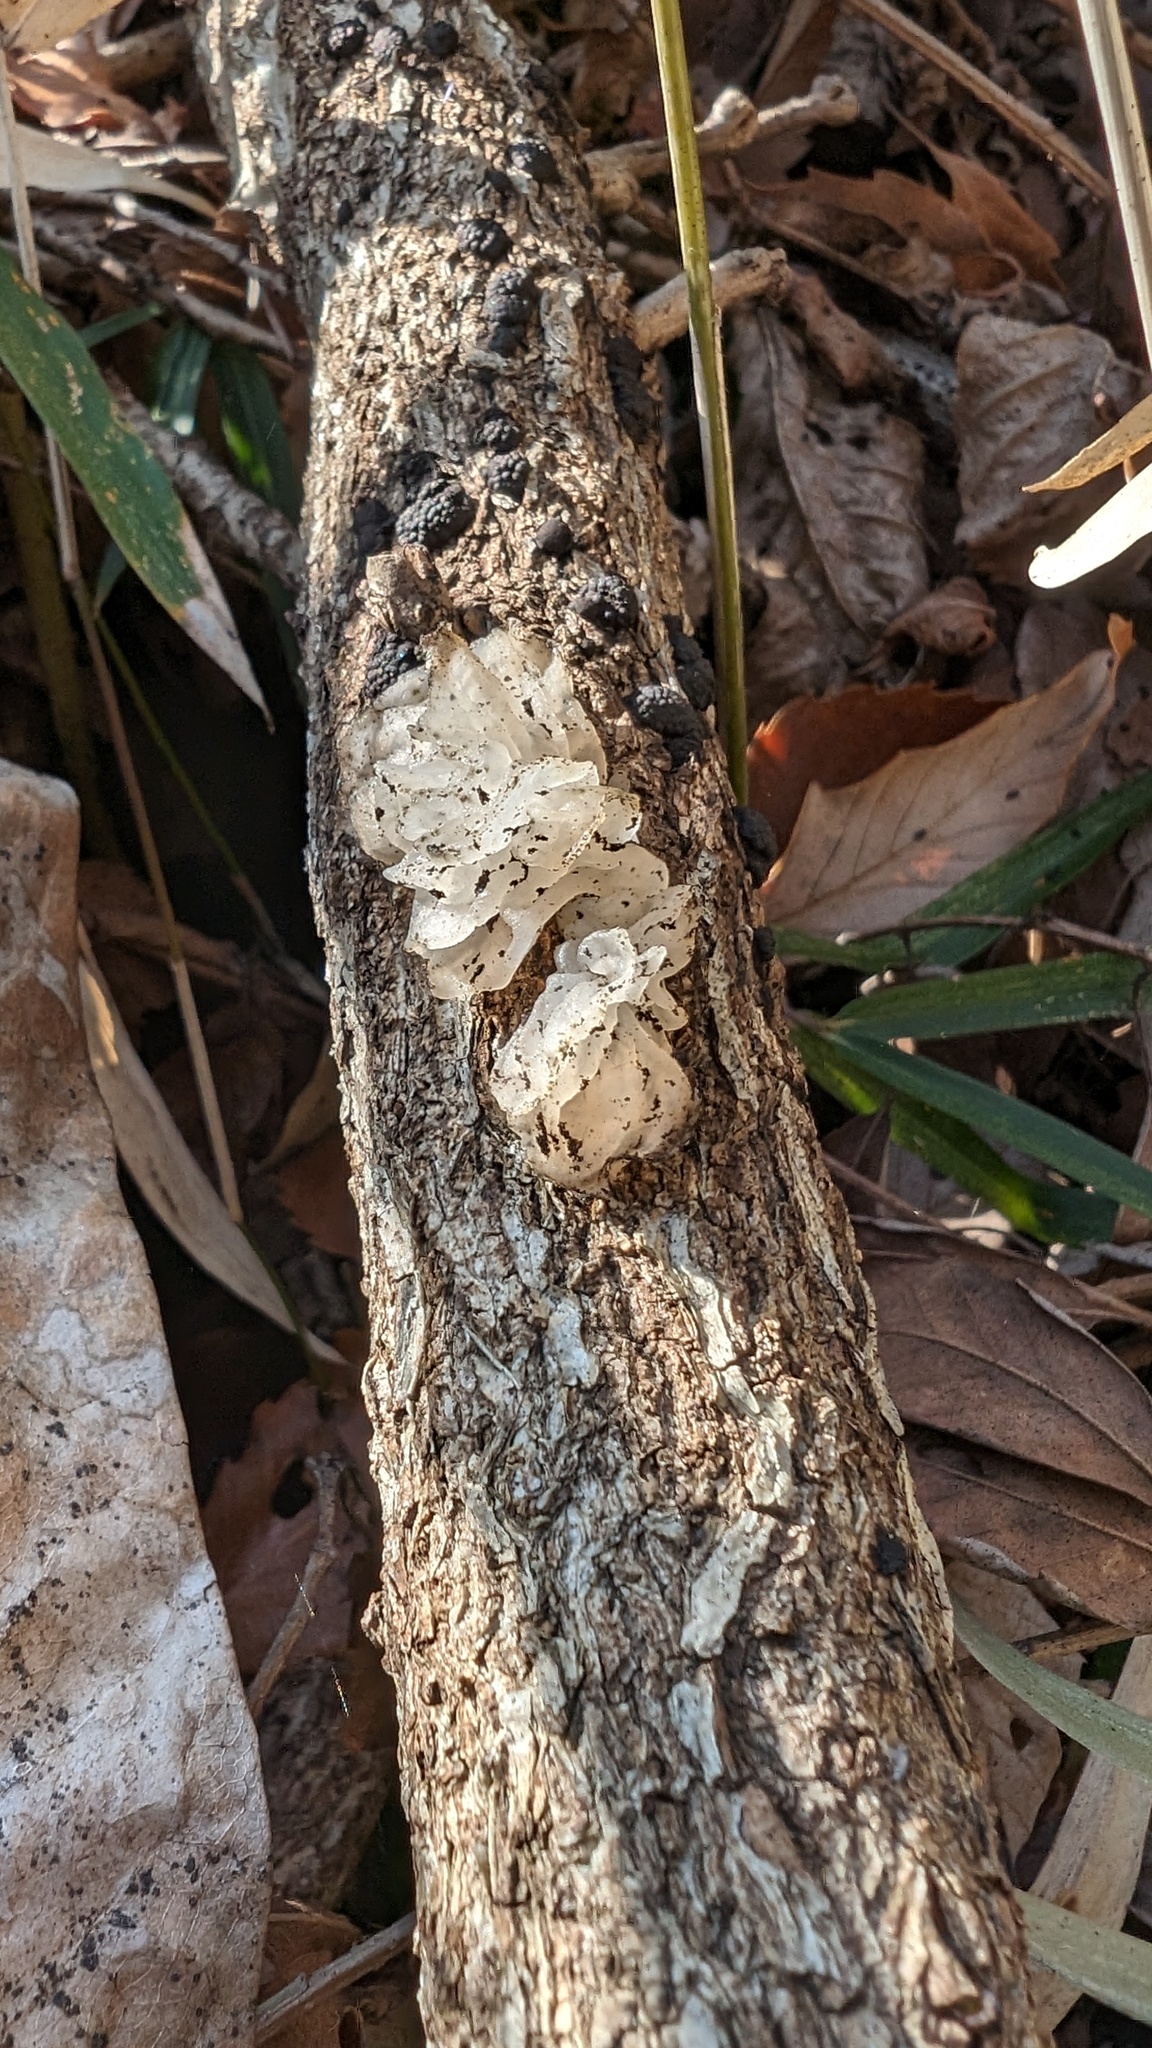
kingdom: Fungi
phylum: Basidiomycota
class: Tremellomycetes
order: Tremellales
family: Tremellaceae
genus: Tremella
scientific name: Tremella fuciformis
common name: Snow fungus
